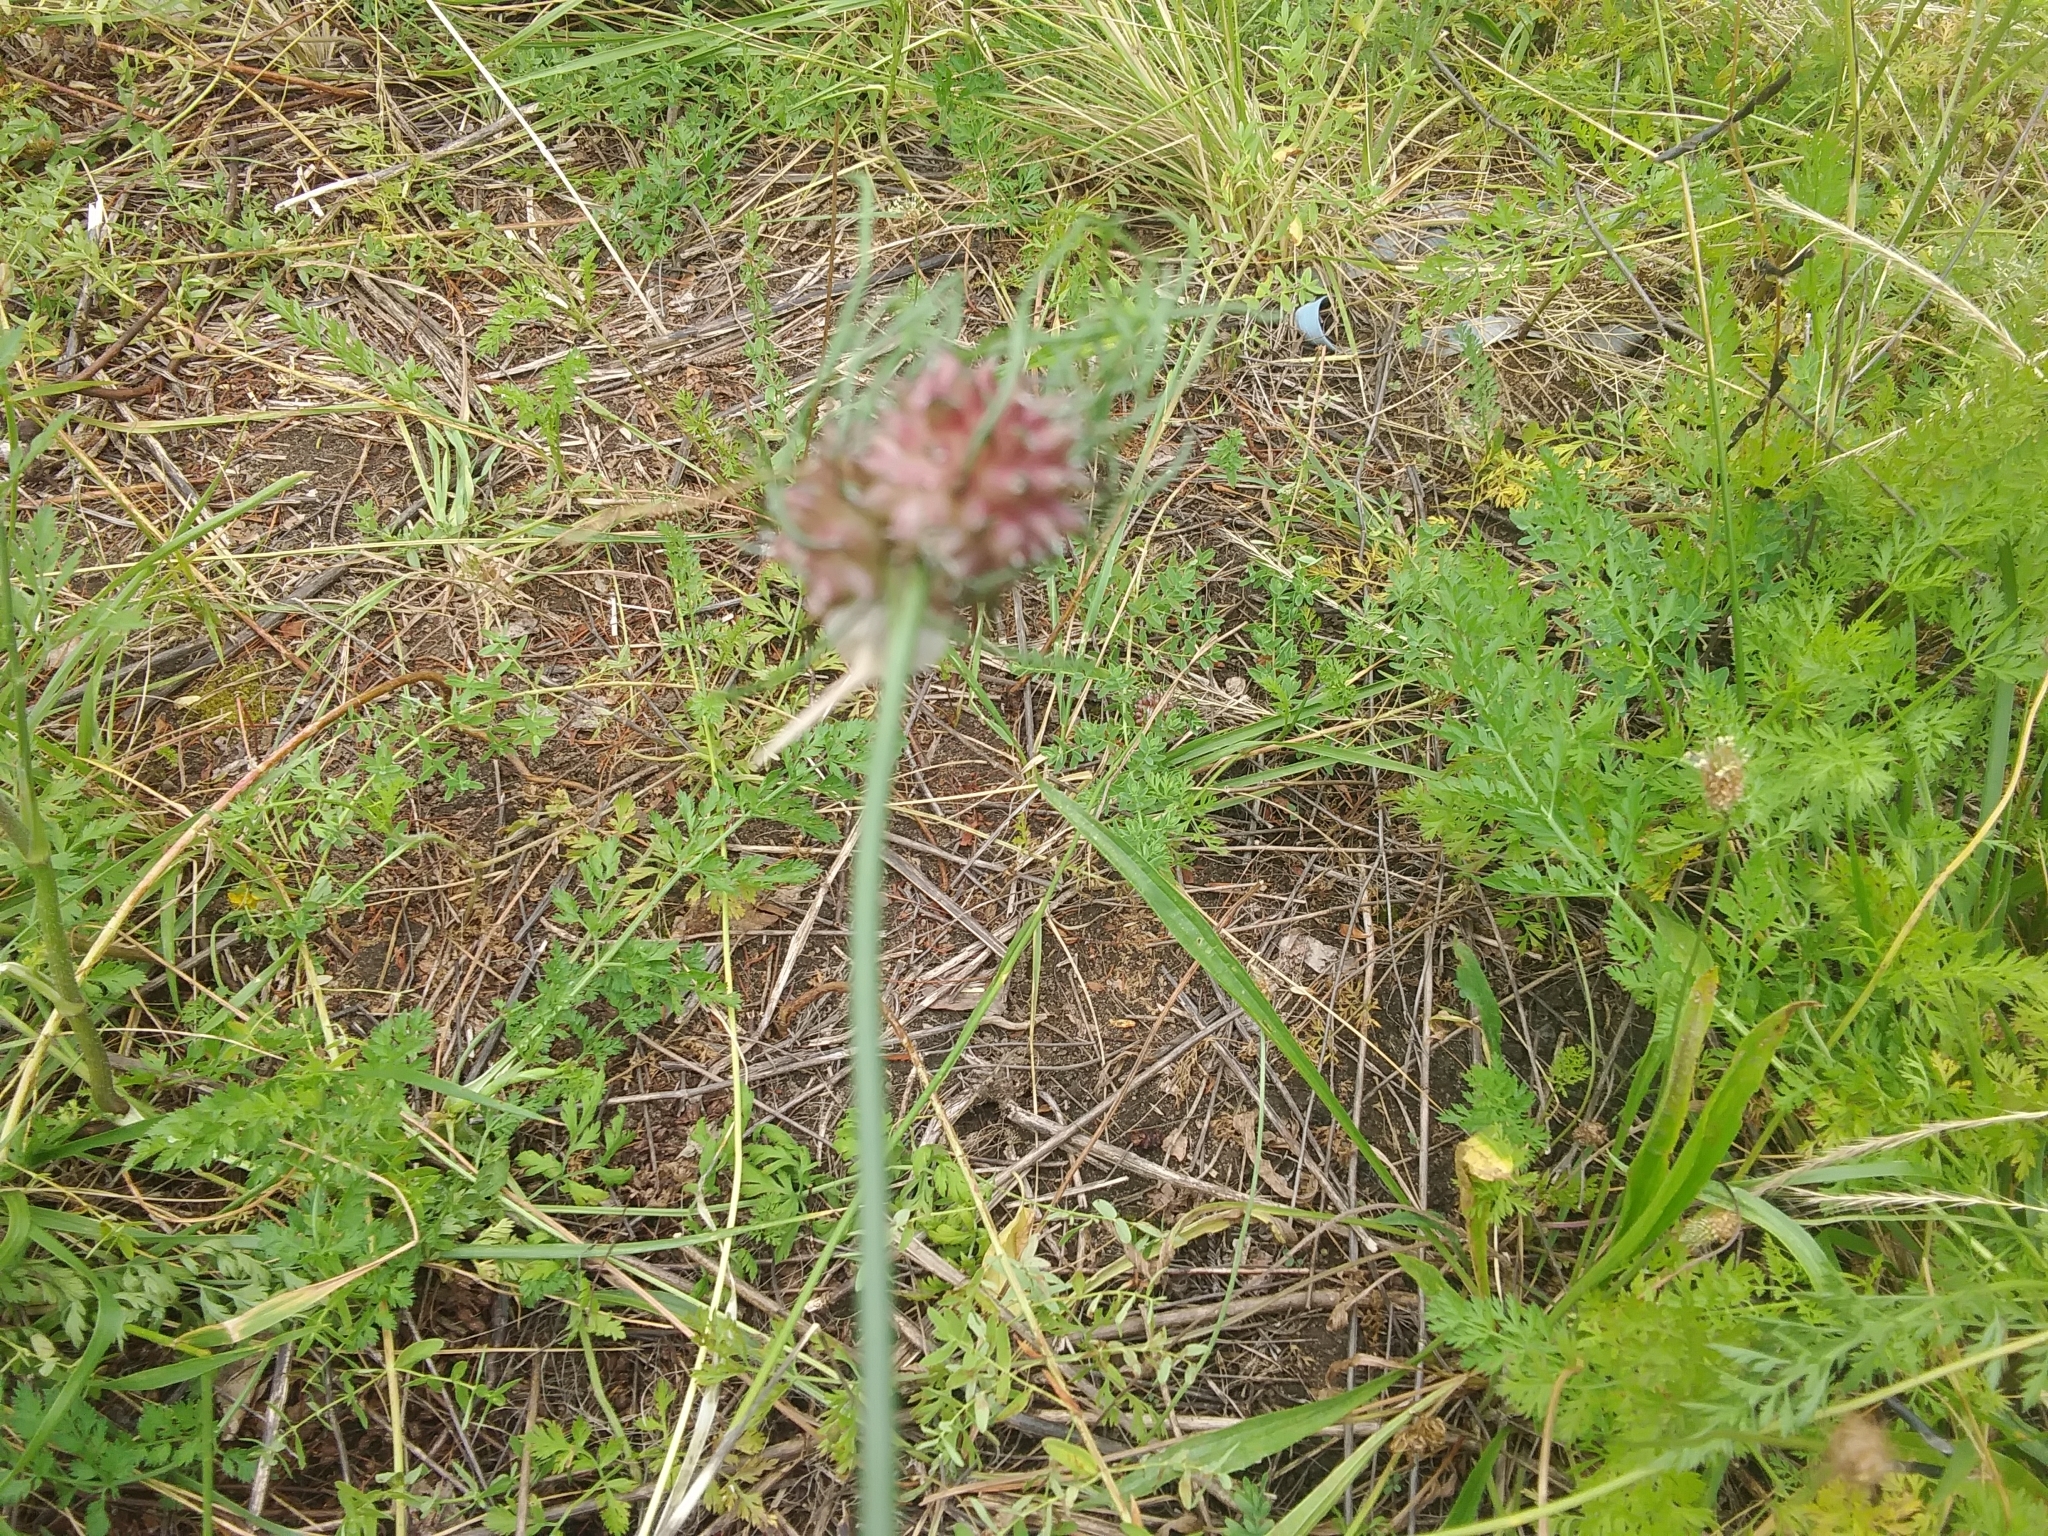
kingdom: Plantae
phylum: Tracheophyta
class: Liliopsida
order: Asparagales
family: Amaryllidaceae
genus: Allium
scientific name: Allium vineale
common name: Crow garlic
